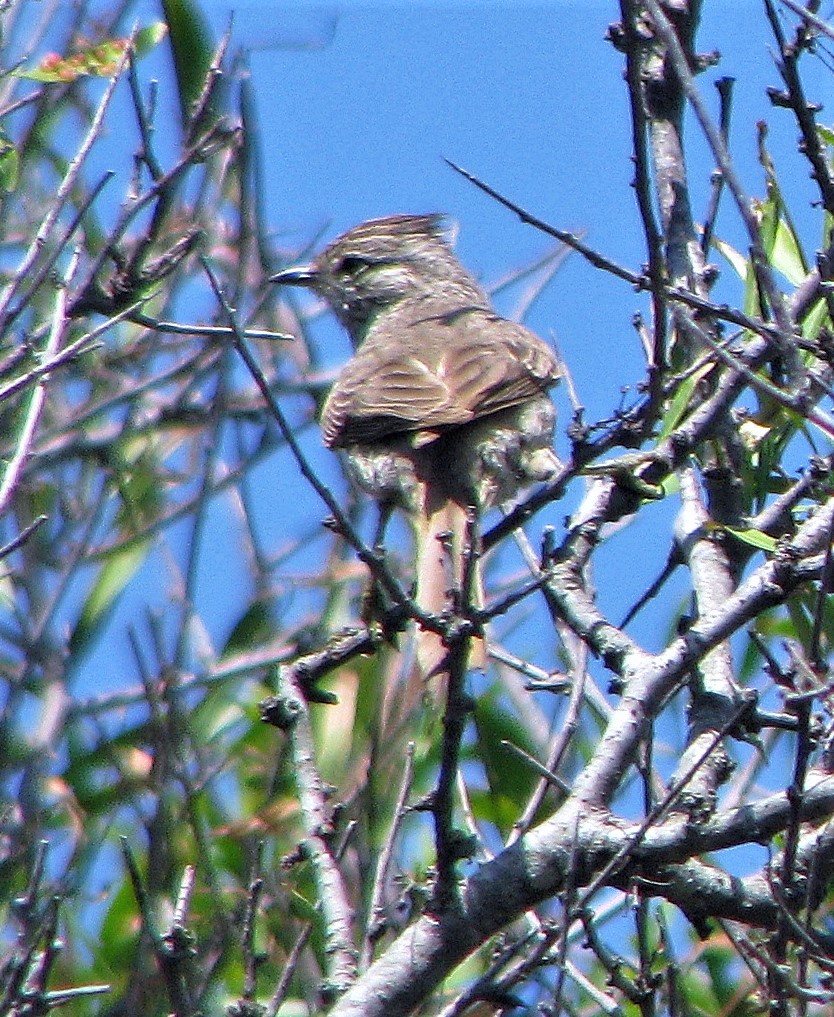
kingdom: Animalia
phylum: Chordata
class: Aves
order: Passeriformes
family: Furnariidae
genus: Leptasthenura
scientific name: Leptasthenura platensis
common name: Tufted tit-spinetail
